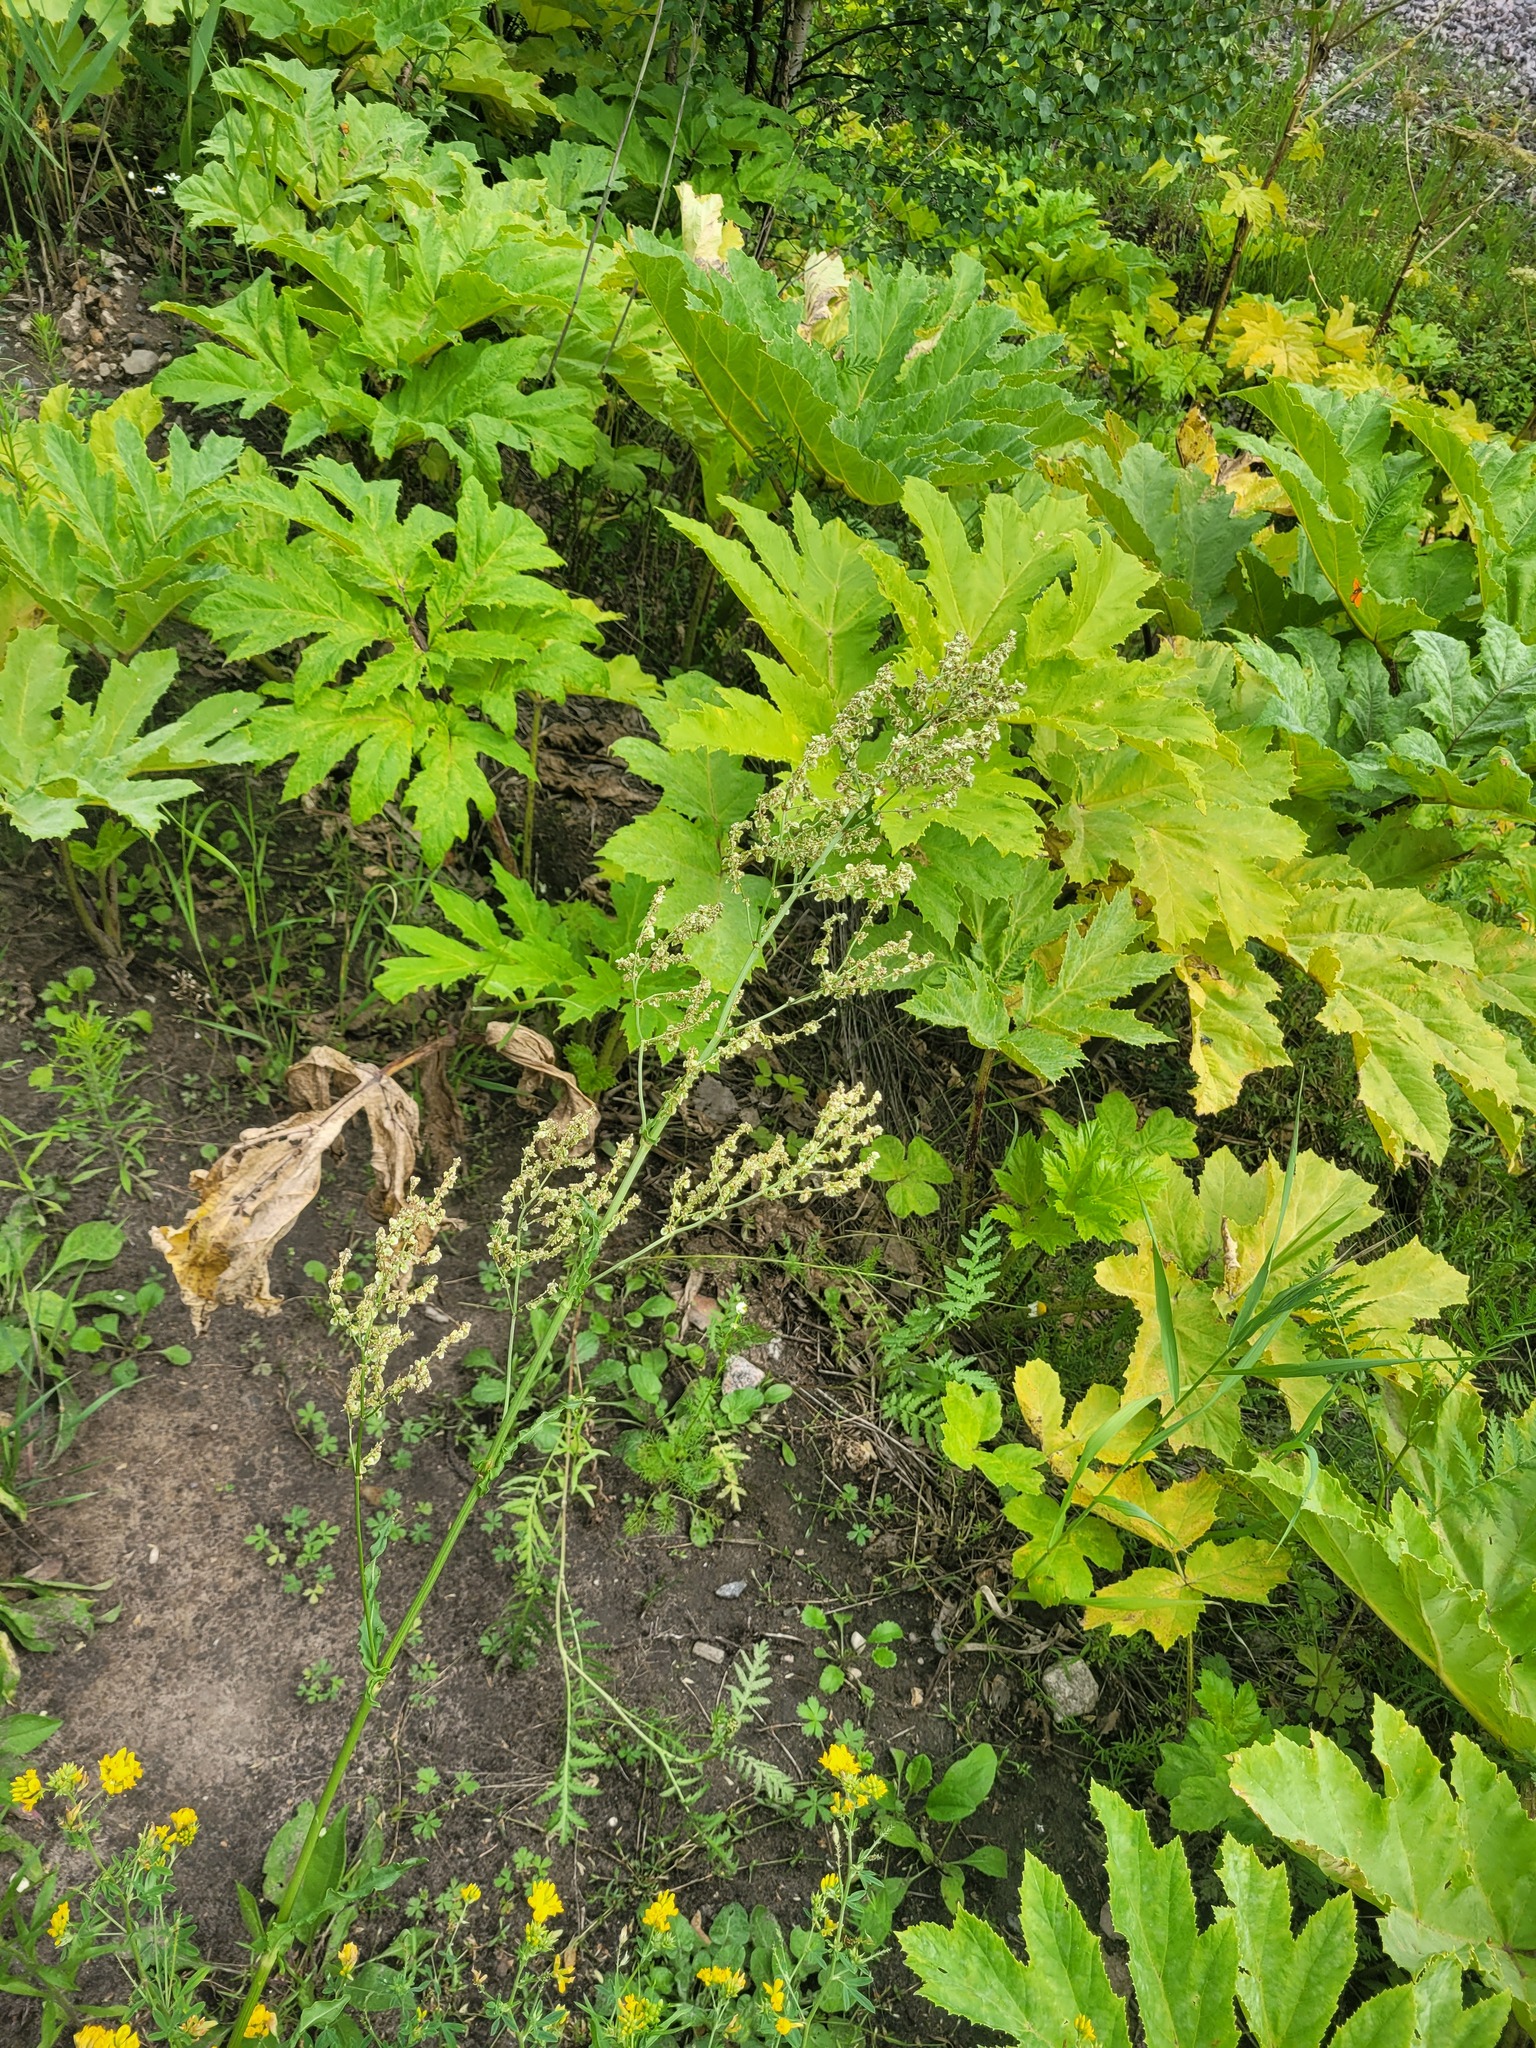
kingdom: Plantae
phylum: Tracheophyta
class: Magnoliopsida
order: Caryophyllales
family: Polygonaceae
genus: Rumex
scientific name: Rumex thyrsiflorus
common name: Garden sorrel
